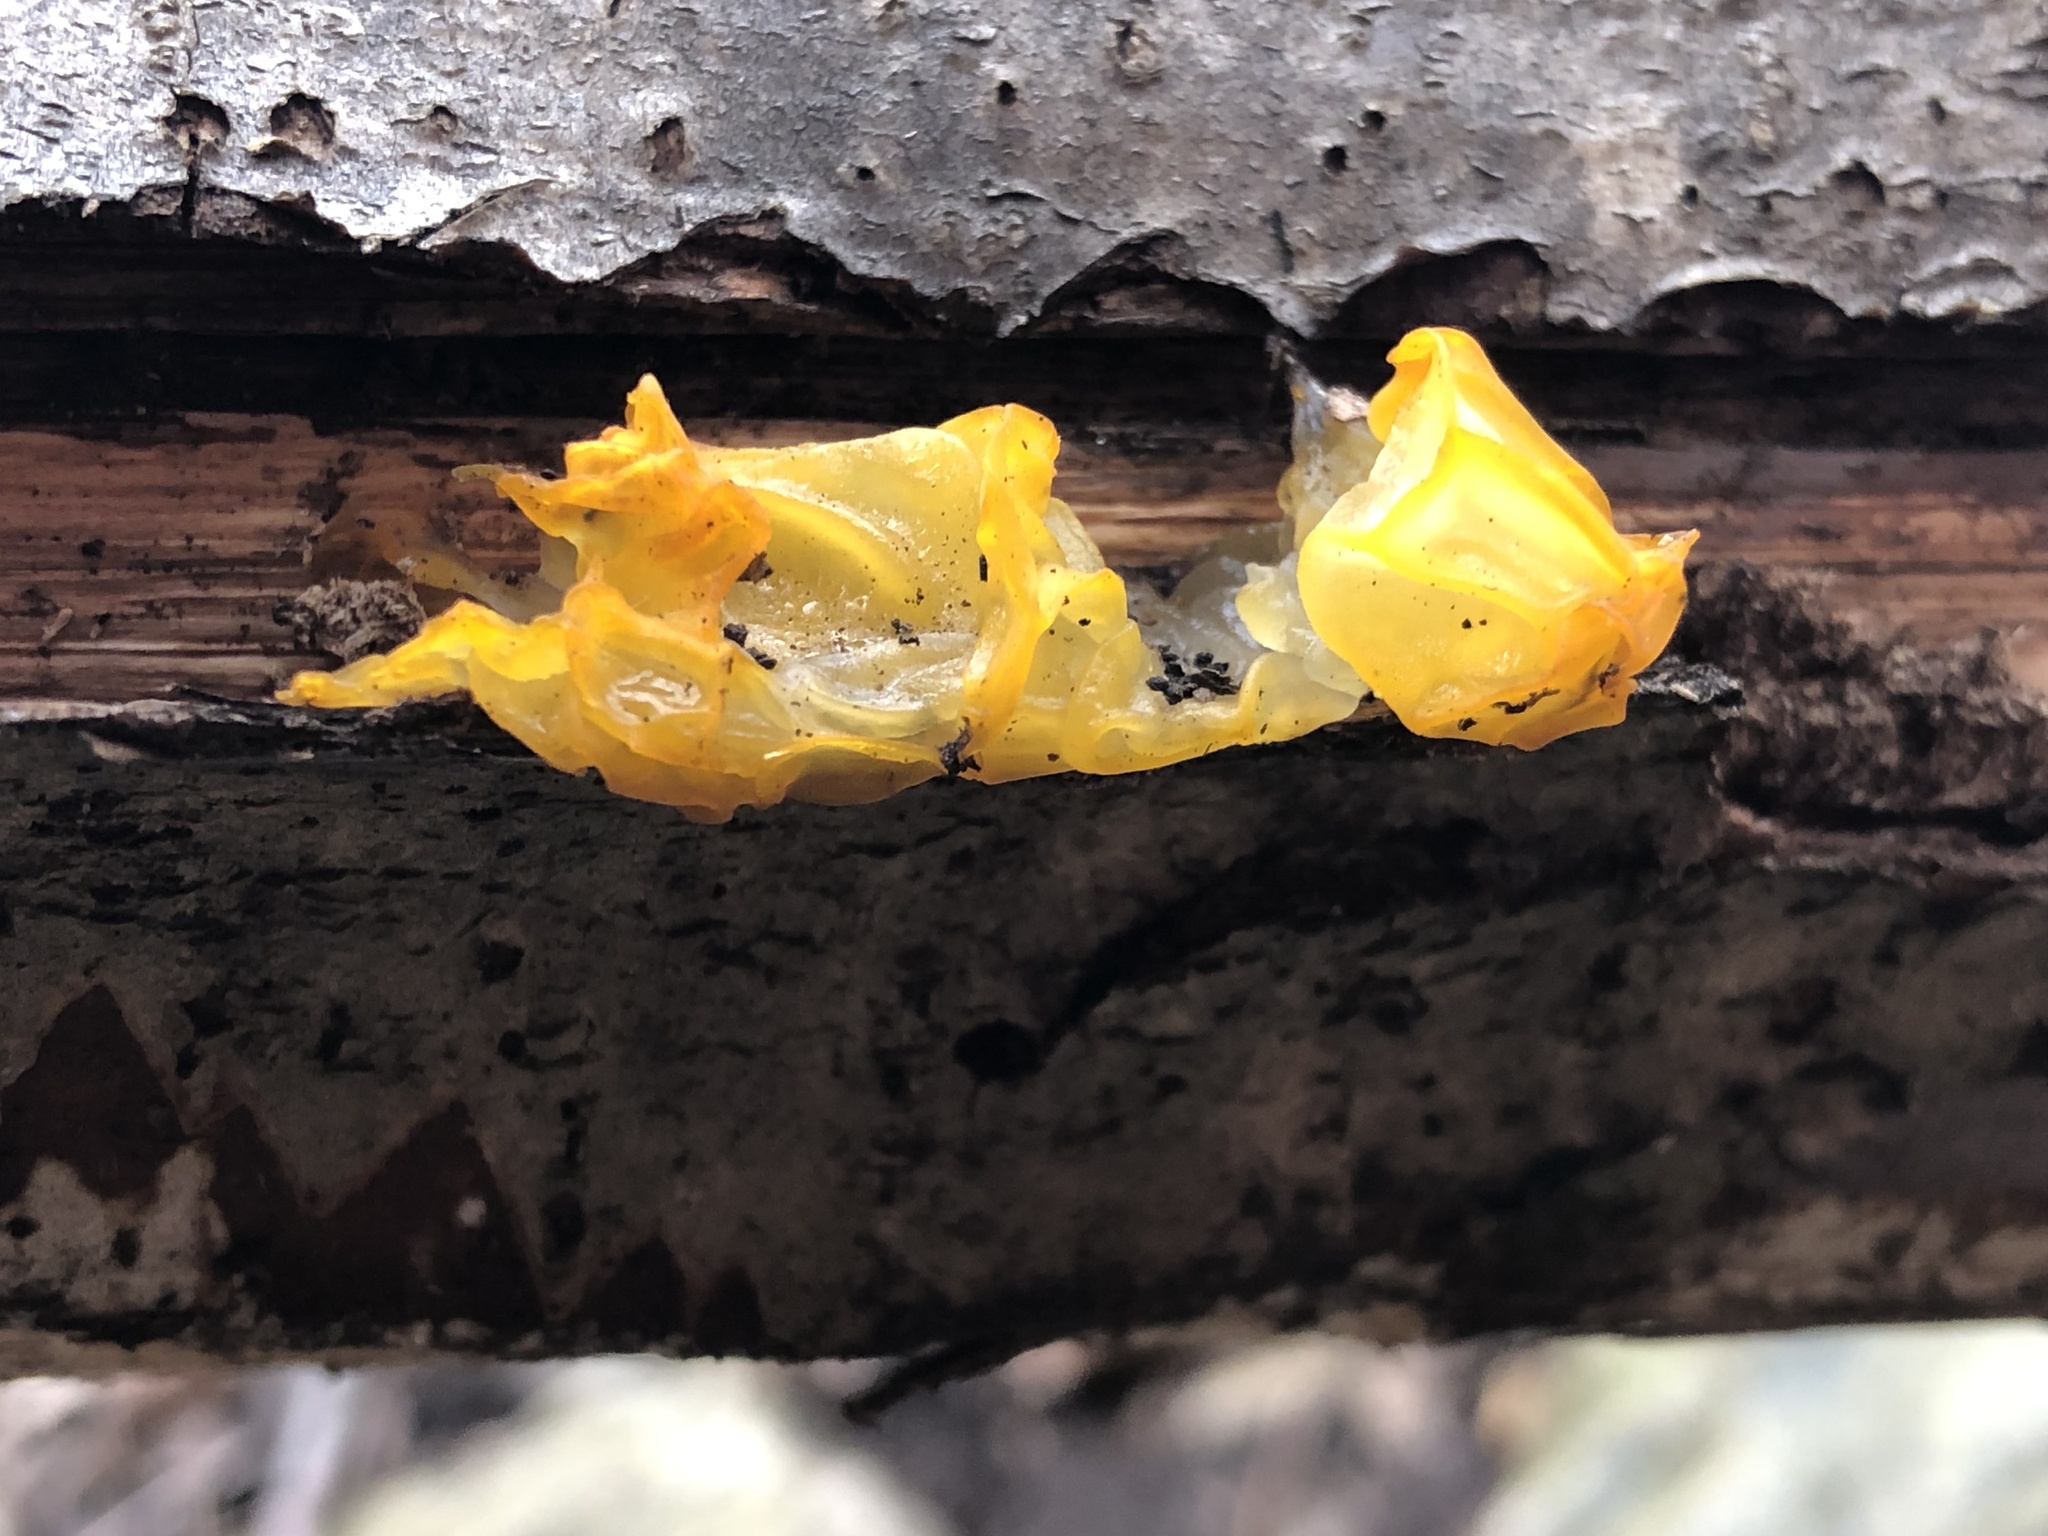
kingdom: Fungi
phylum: Basidiomycota
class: Tremellomycetes
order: Tremellales
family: Tremellaceae
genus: Tremella
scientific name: Tremella mesenterica
